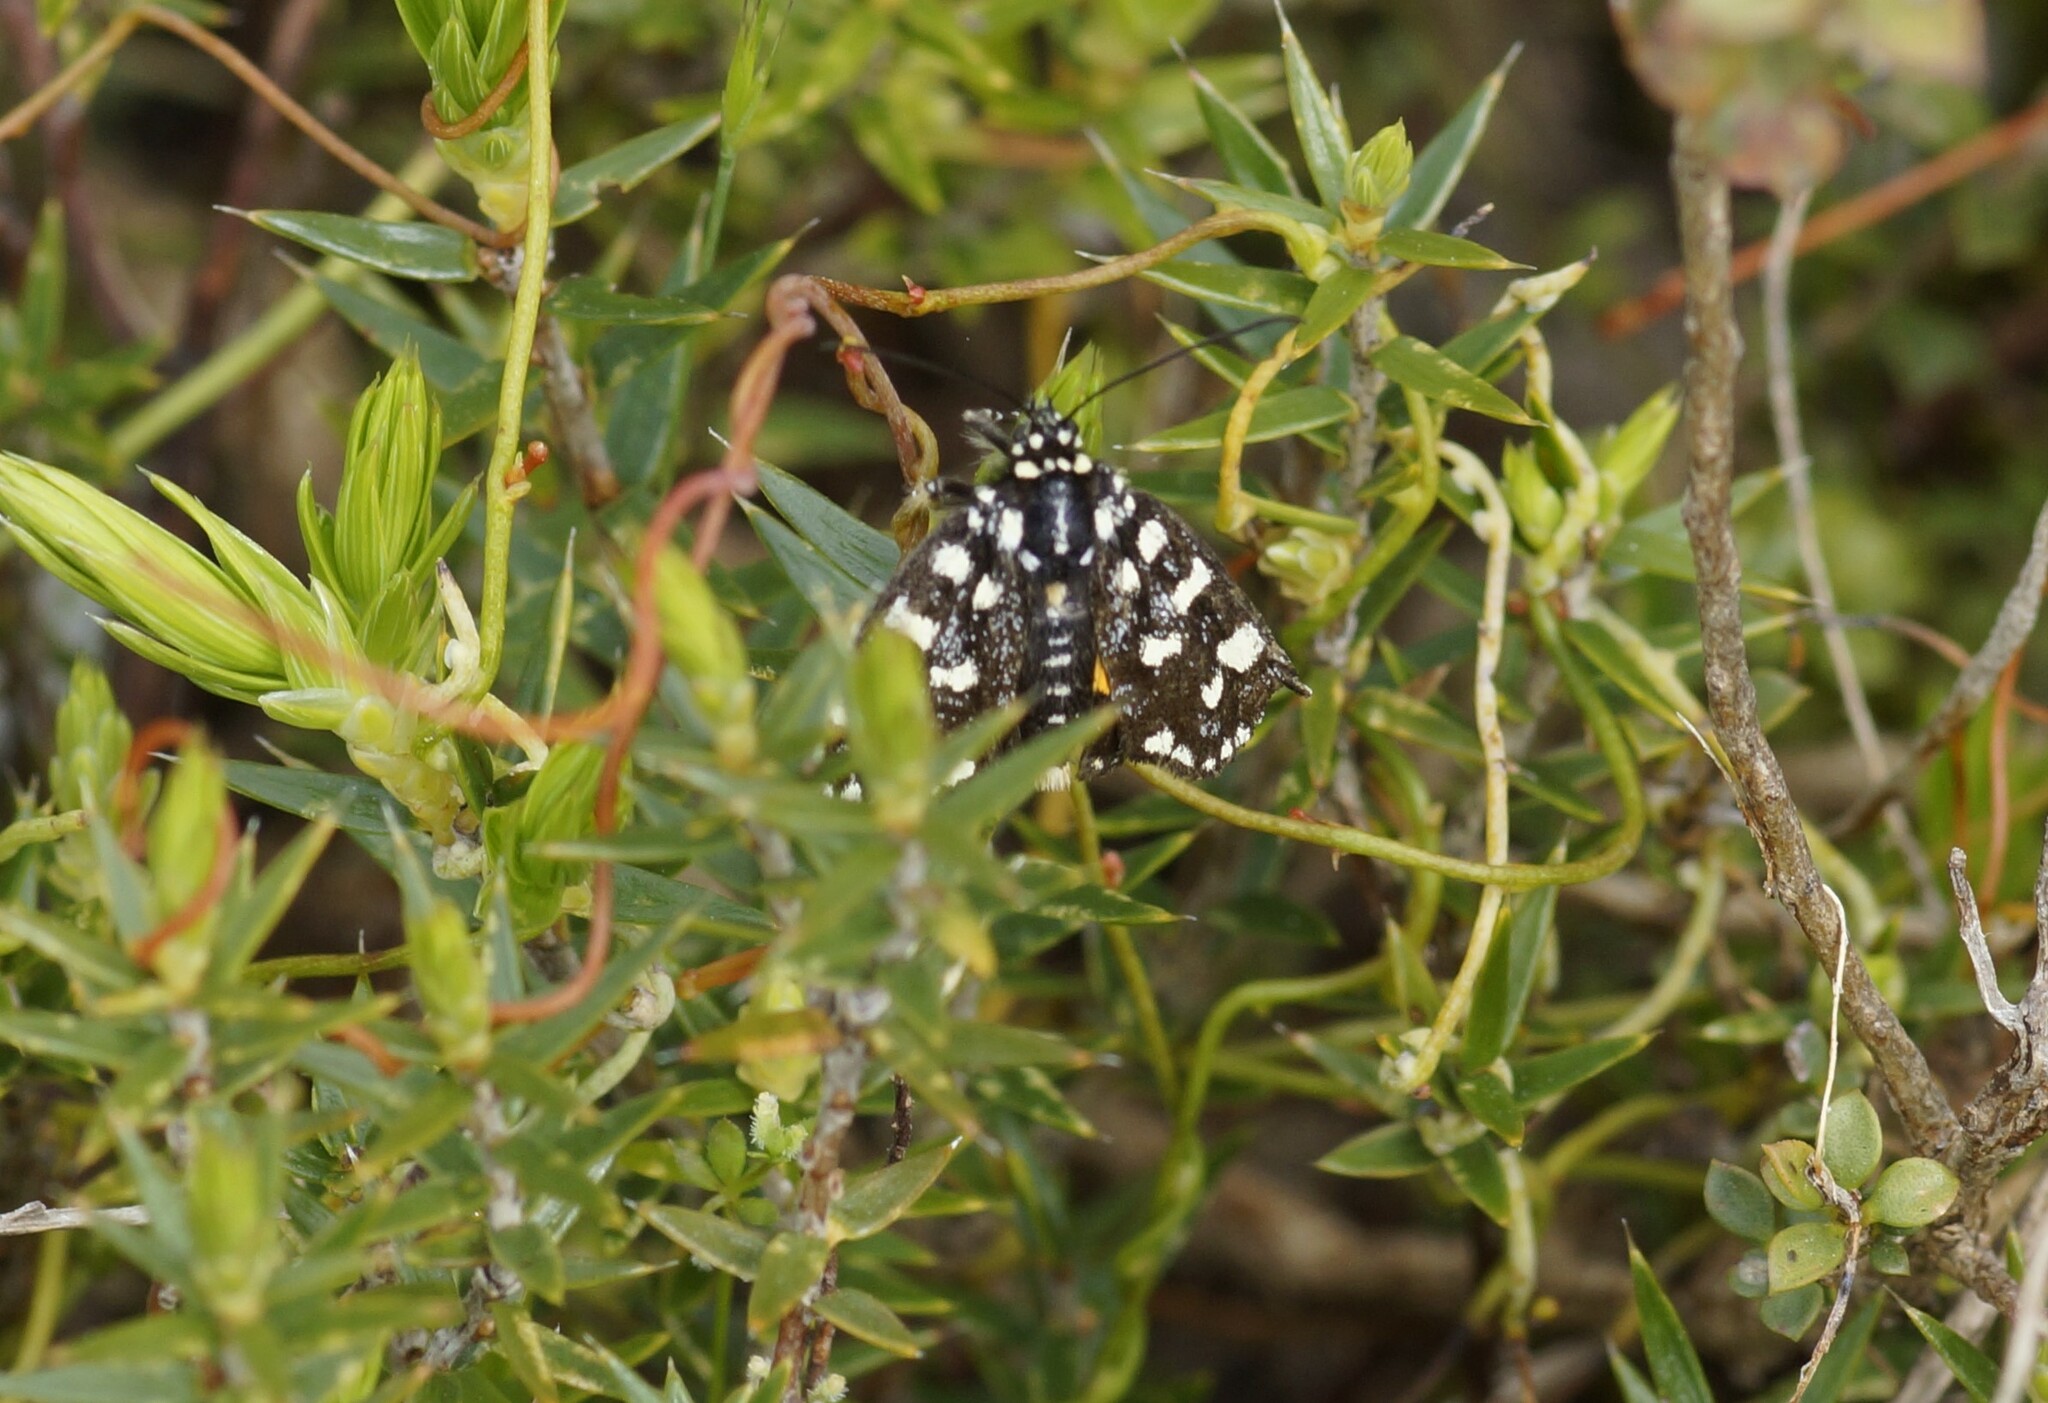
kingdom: Animalia
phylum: Arthropoda
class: Insecta
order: Lepidoptera
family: Noctuidae
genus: Hecatesia
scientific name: Hecatesia exultans
